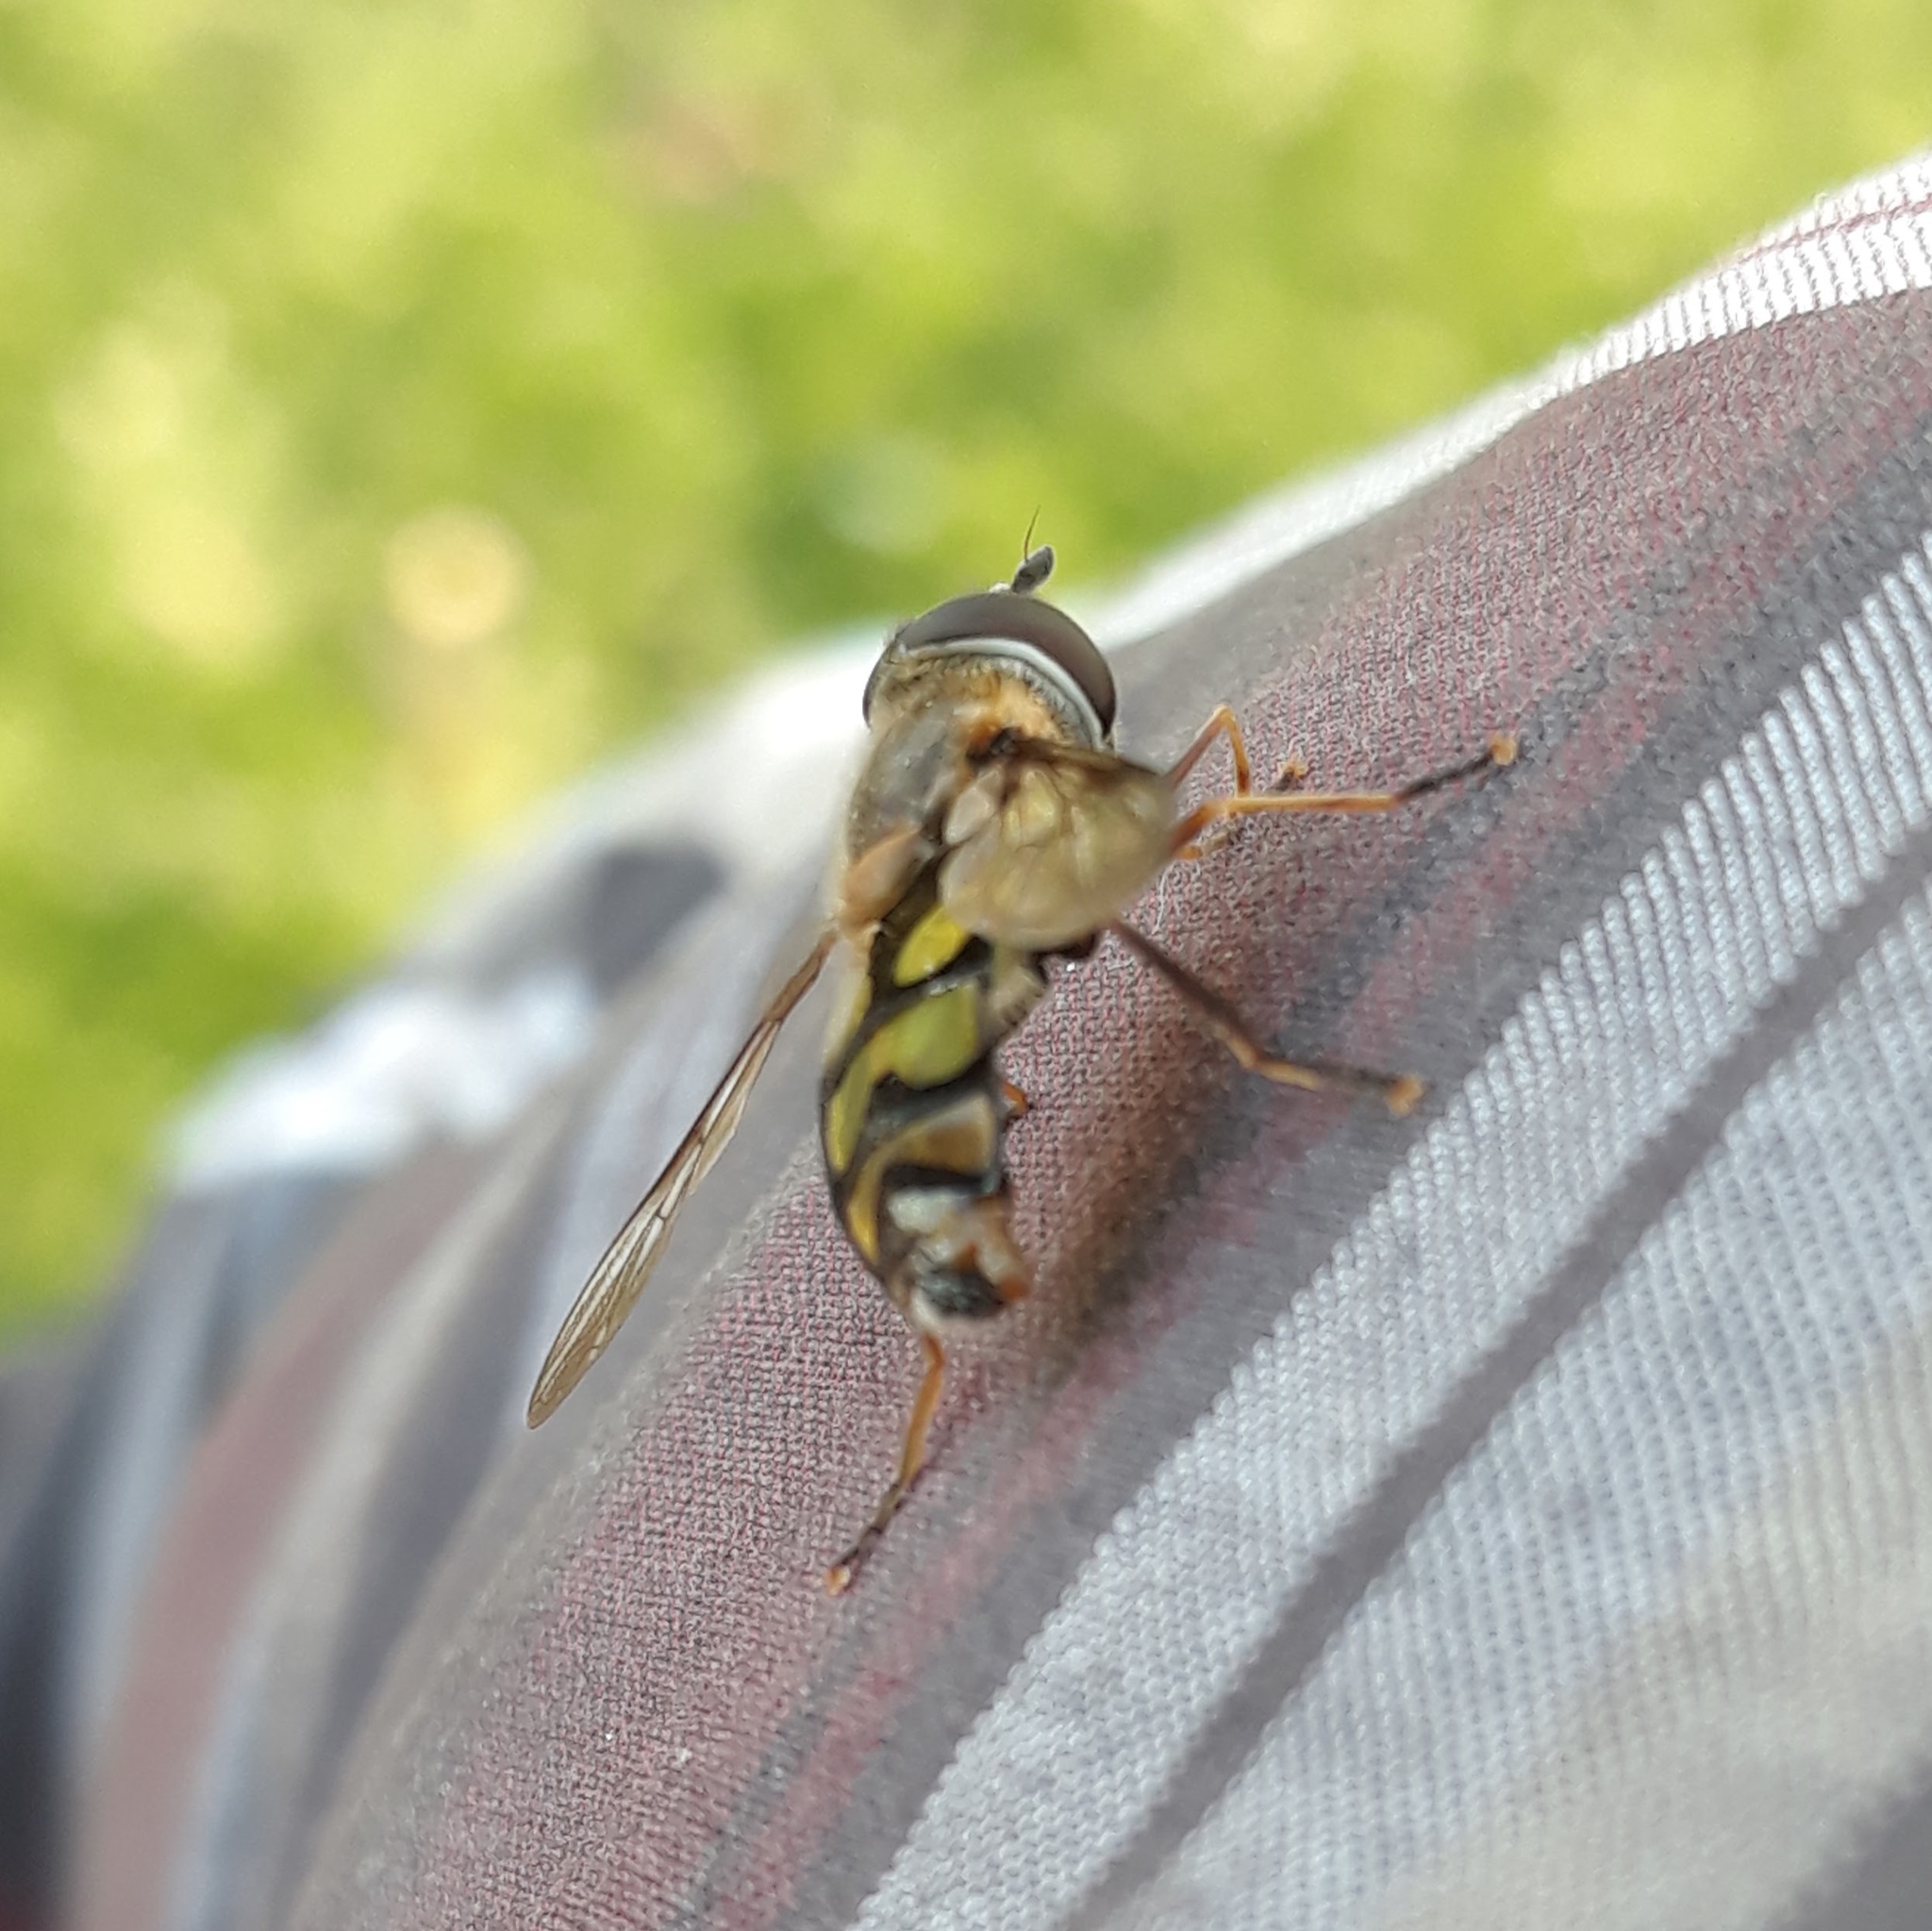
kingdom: Animalia
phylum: Arthropoda
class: Insecta
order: Diptera
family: Syrphidae
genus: Didea
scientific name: Didea fuscipes
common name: Undivided lucent
